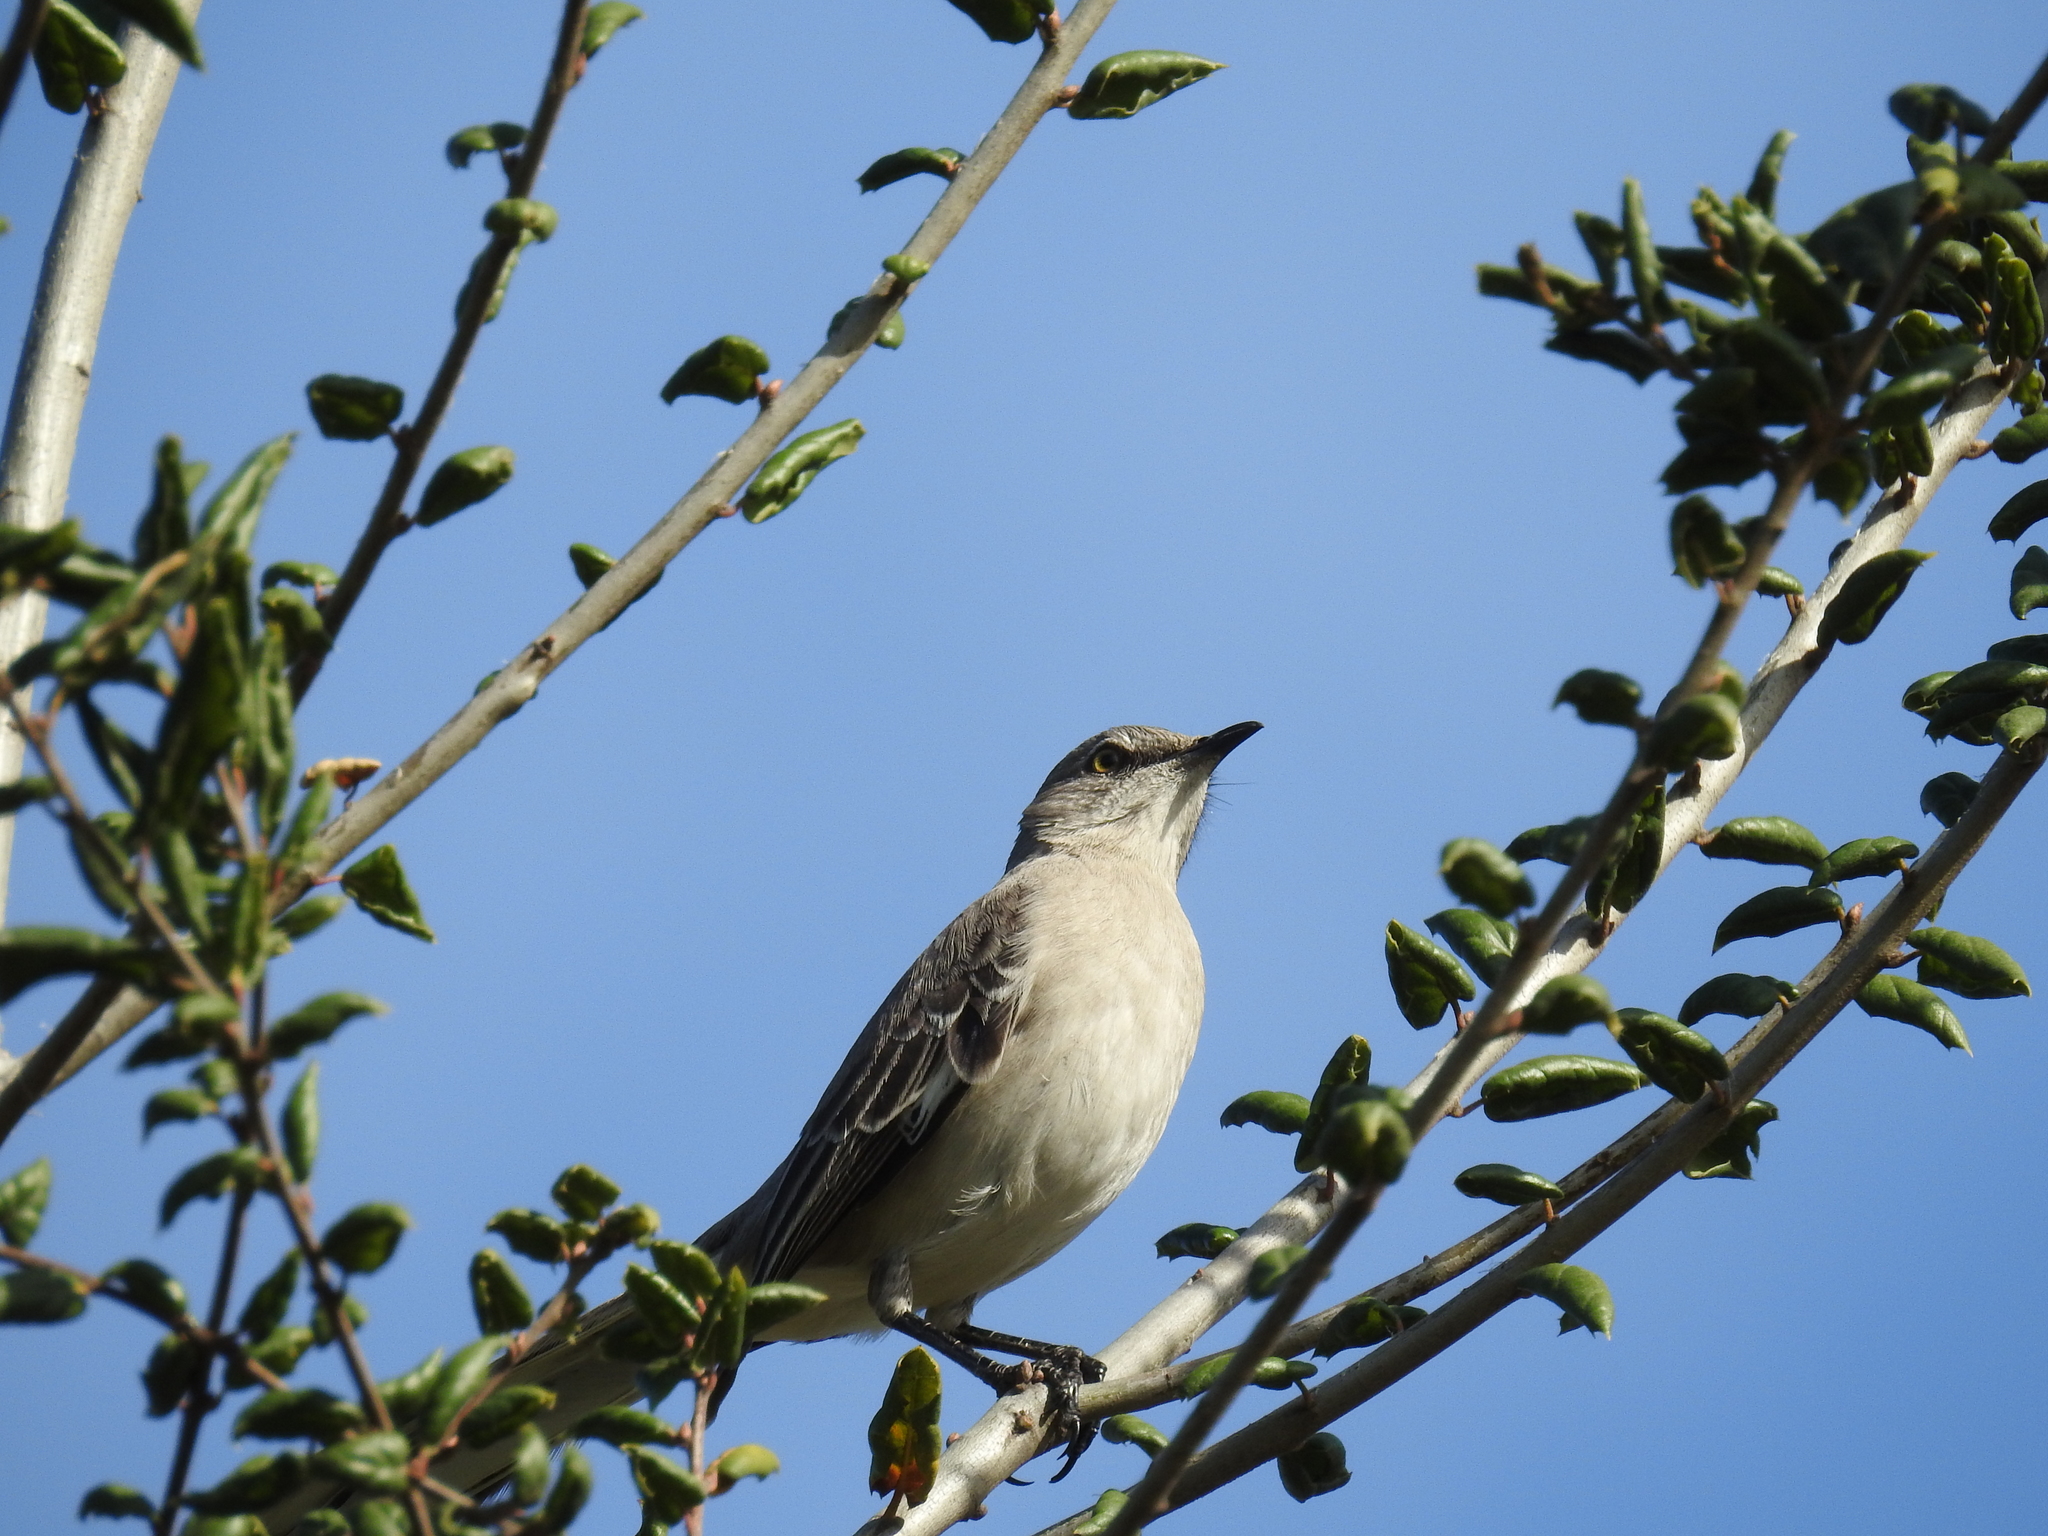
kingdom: Animalia
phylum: Chordata
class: Aves
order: Passeriformes
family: Mimidae
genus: Mimus
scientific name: Mimus polyglottos
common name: Northern mockingbird
